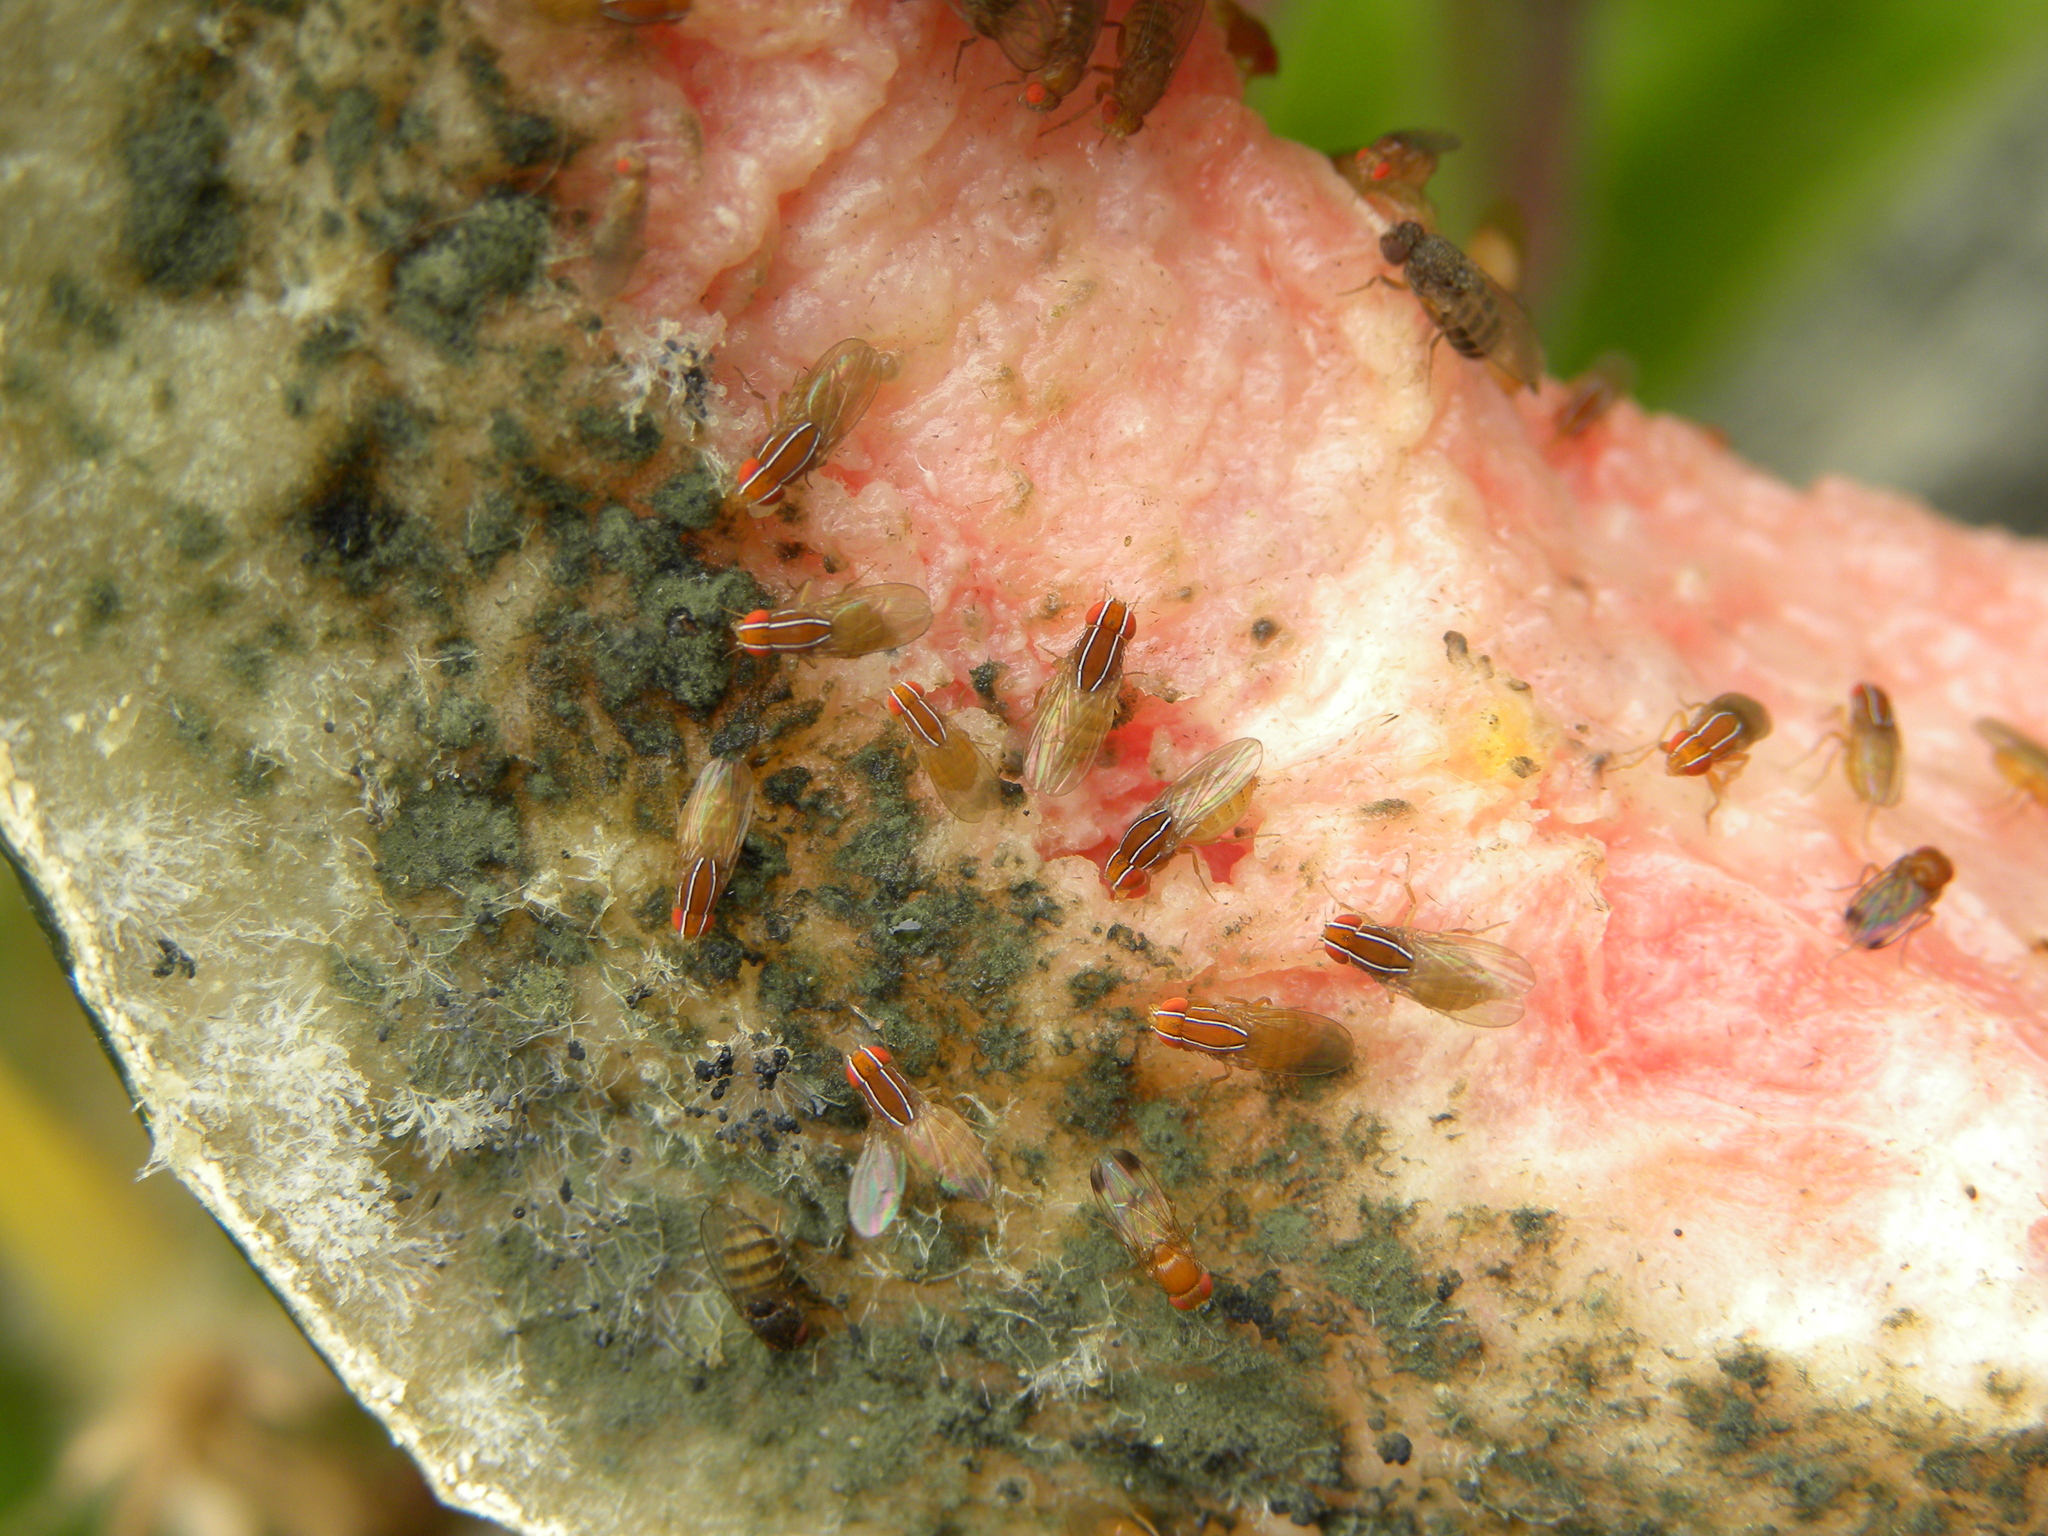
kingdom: Animalia
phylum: Arthropoda
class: Insecta
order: Diptera
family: Drosophilidae
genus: Zaprionus
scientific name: Zaprionus indianus
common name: African fig fly
